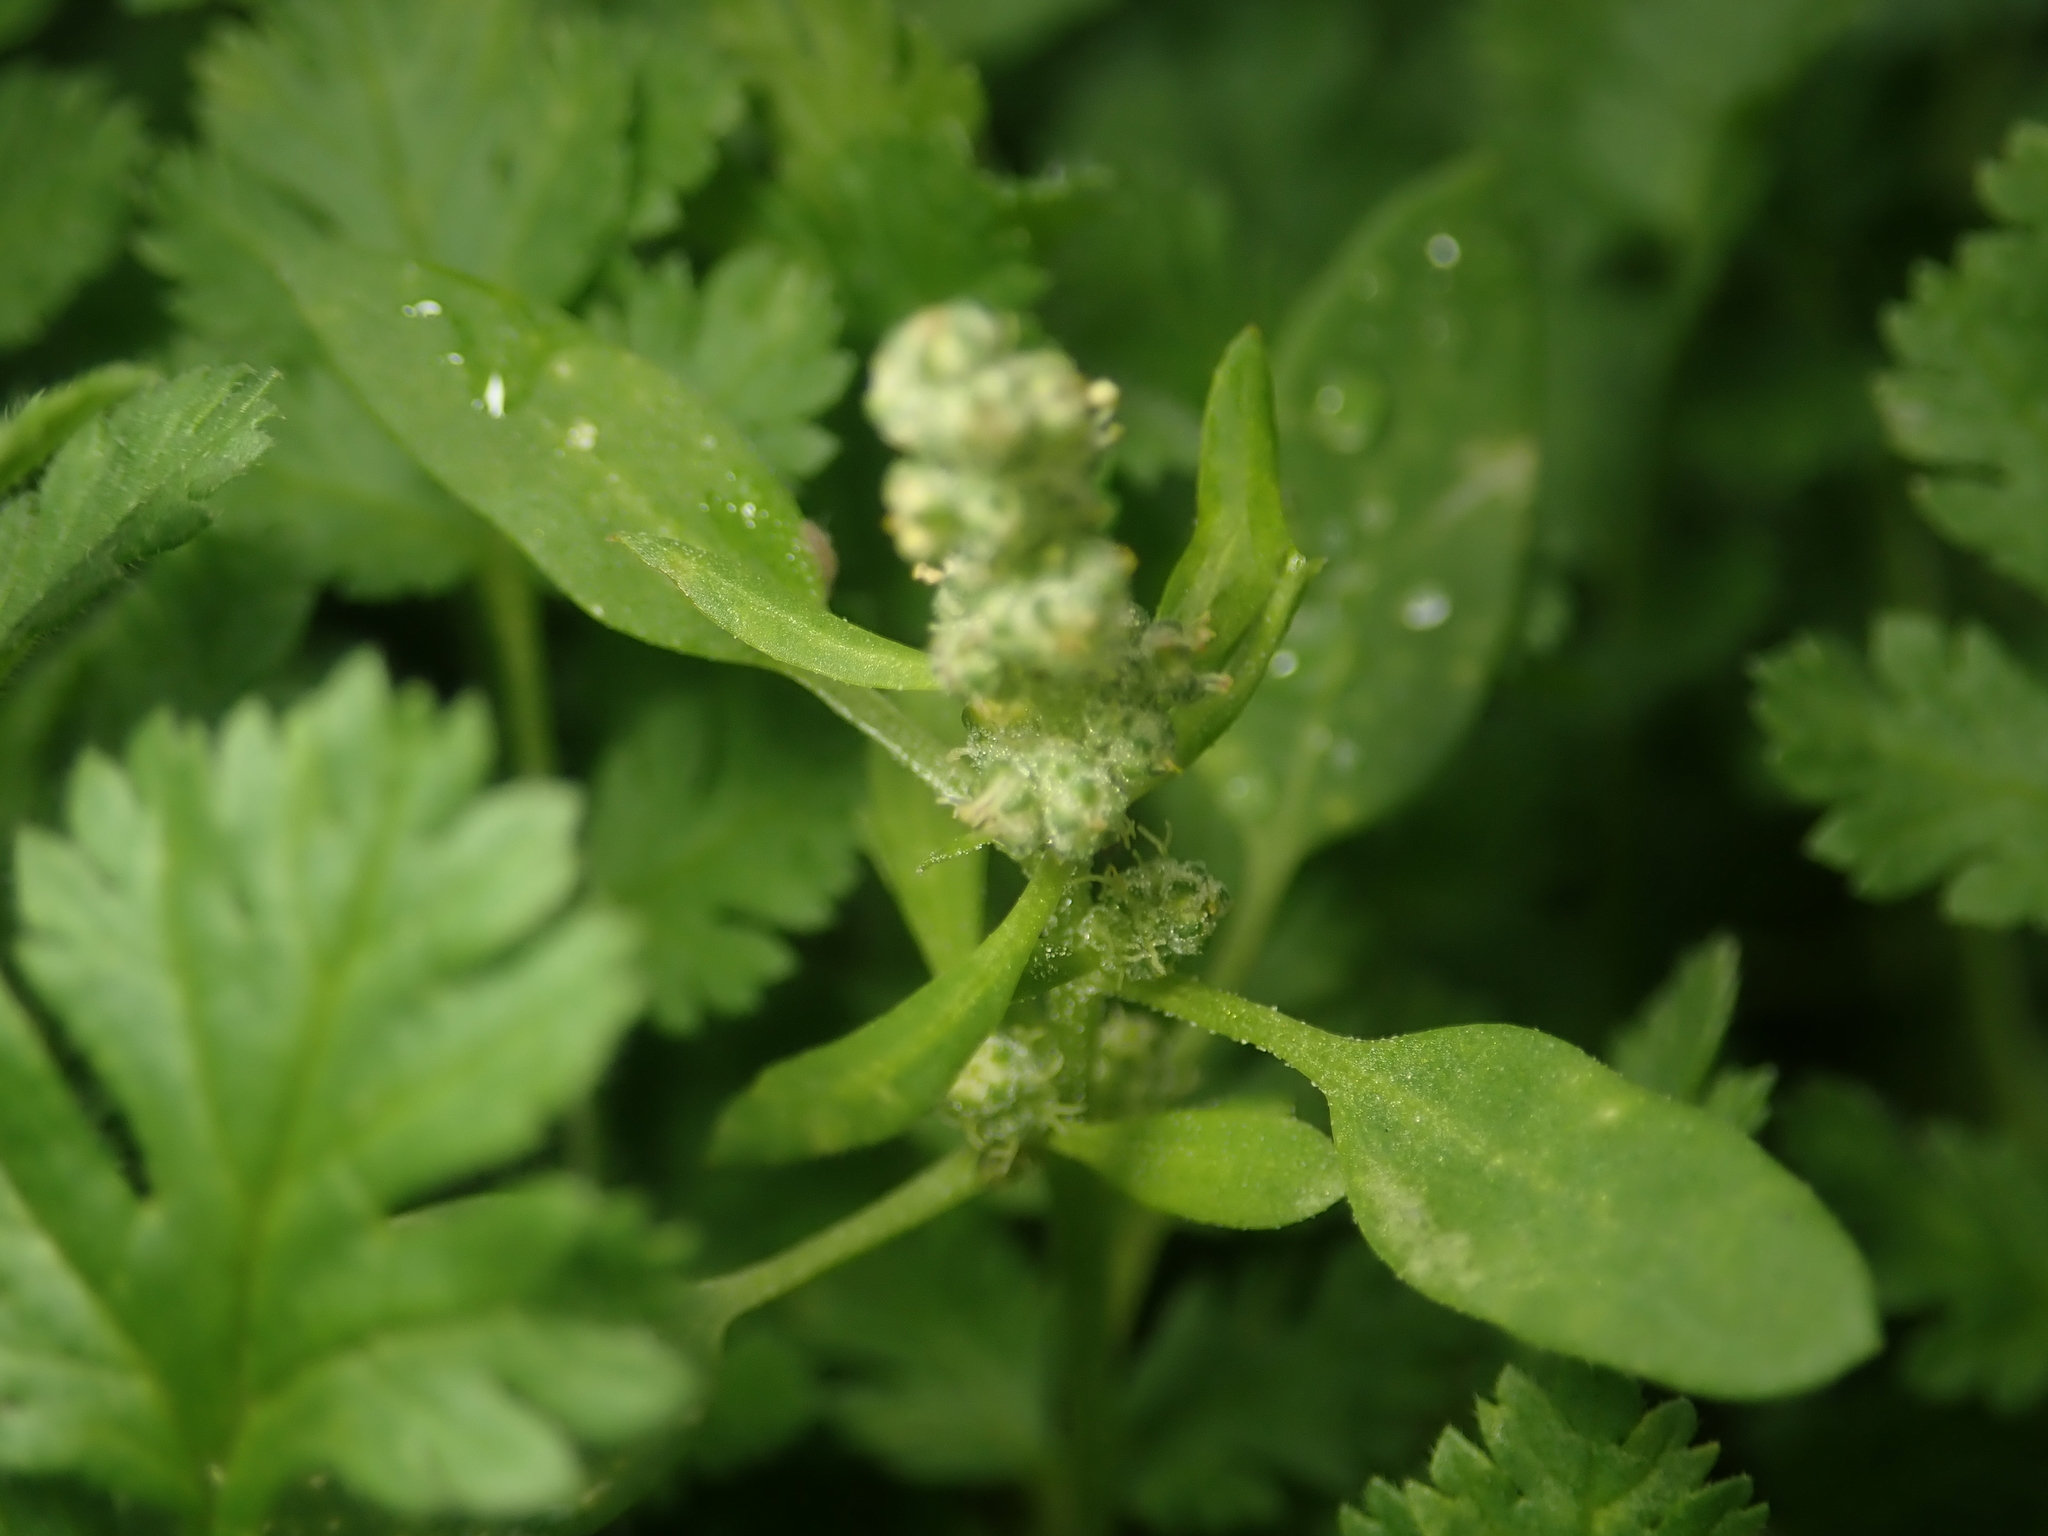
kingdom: Plantae
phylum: Tracheophyta
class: Magnoliopsida
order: Caryophyllales
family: Amaranthaceae
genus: Chenopodium
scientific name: Chenopodium album
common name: Fat-hen
